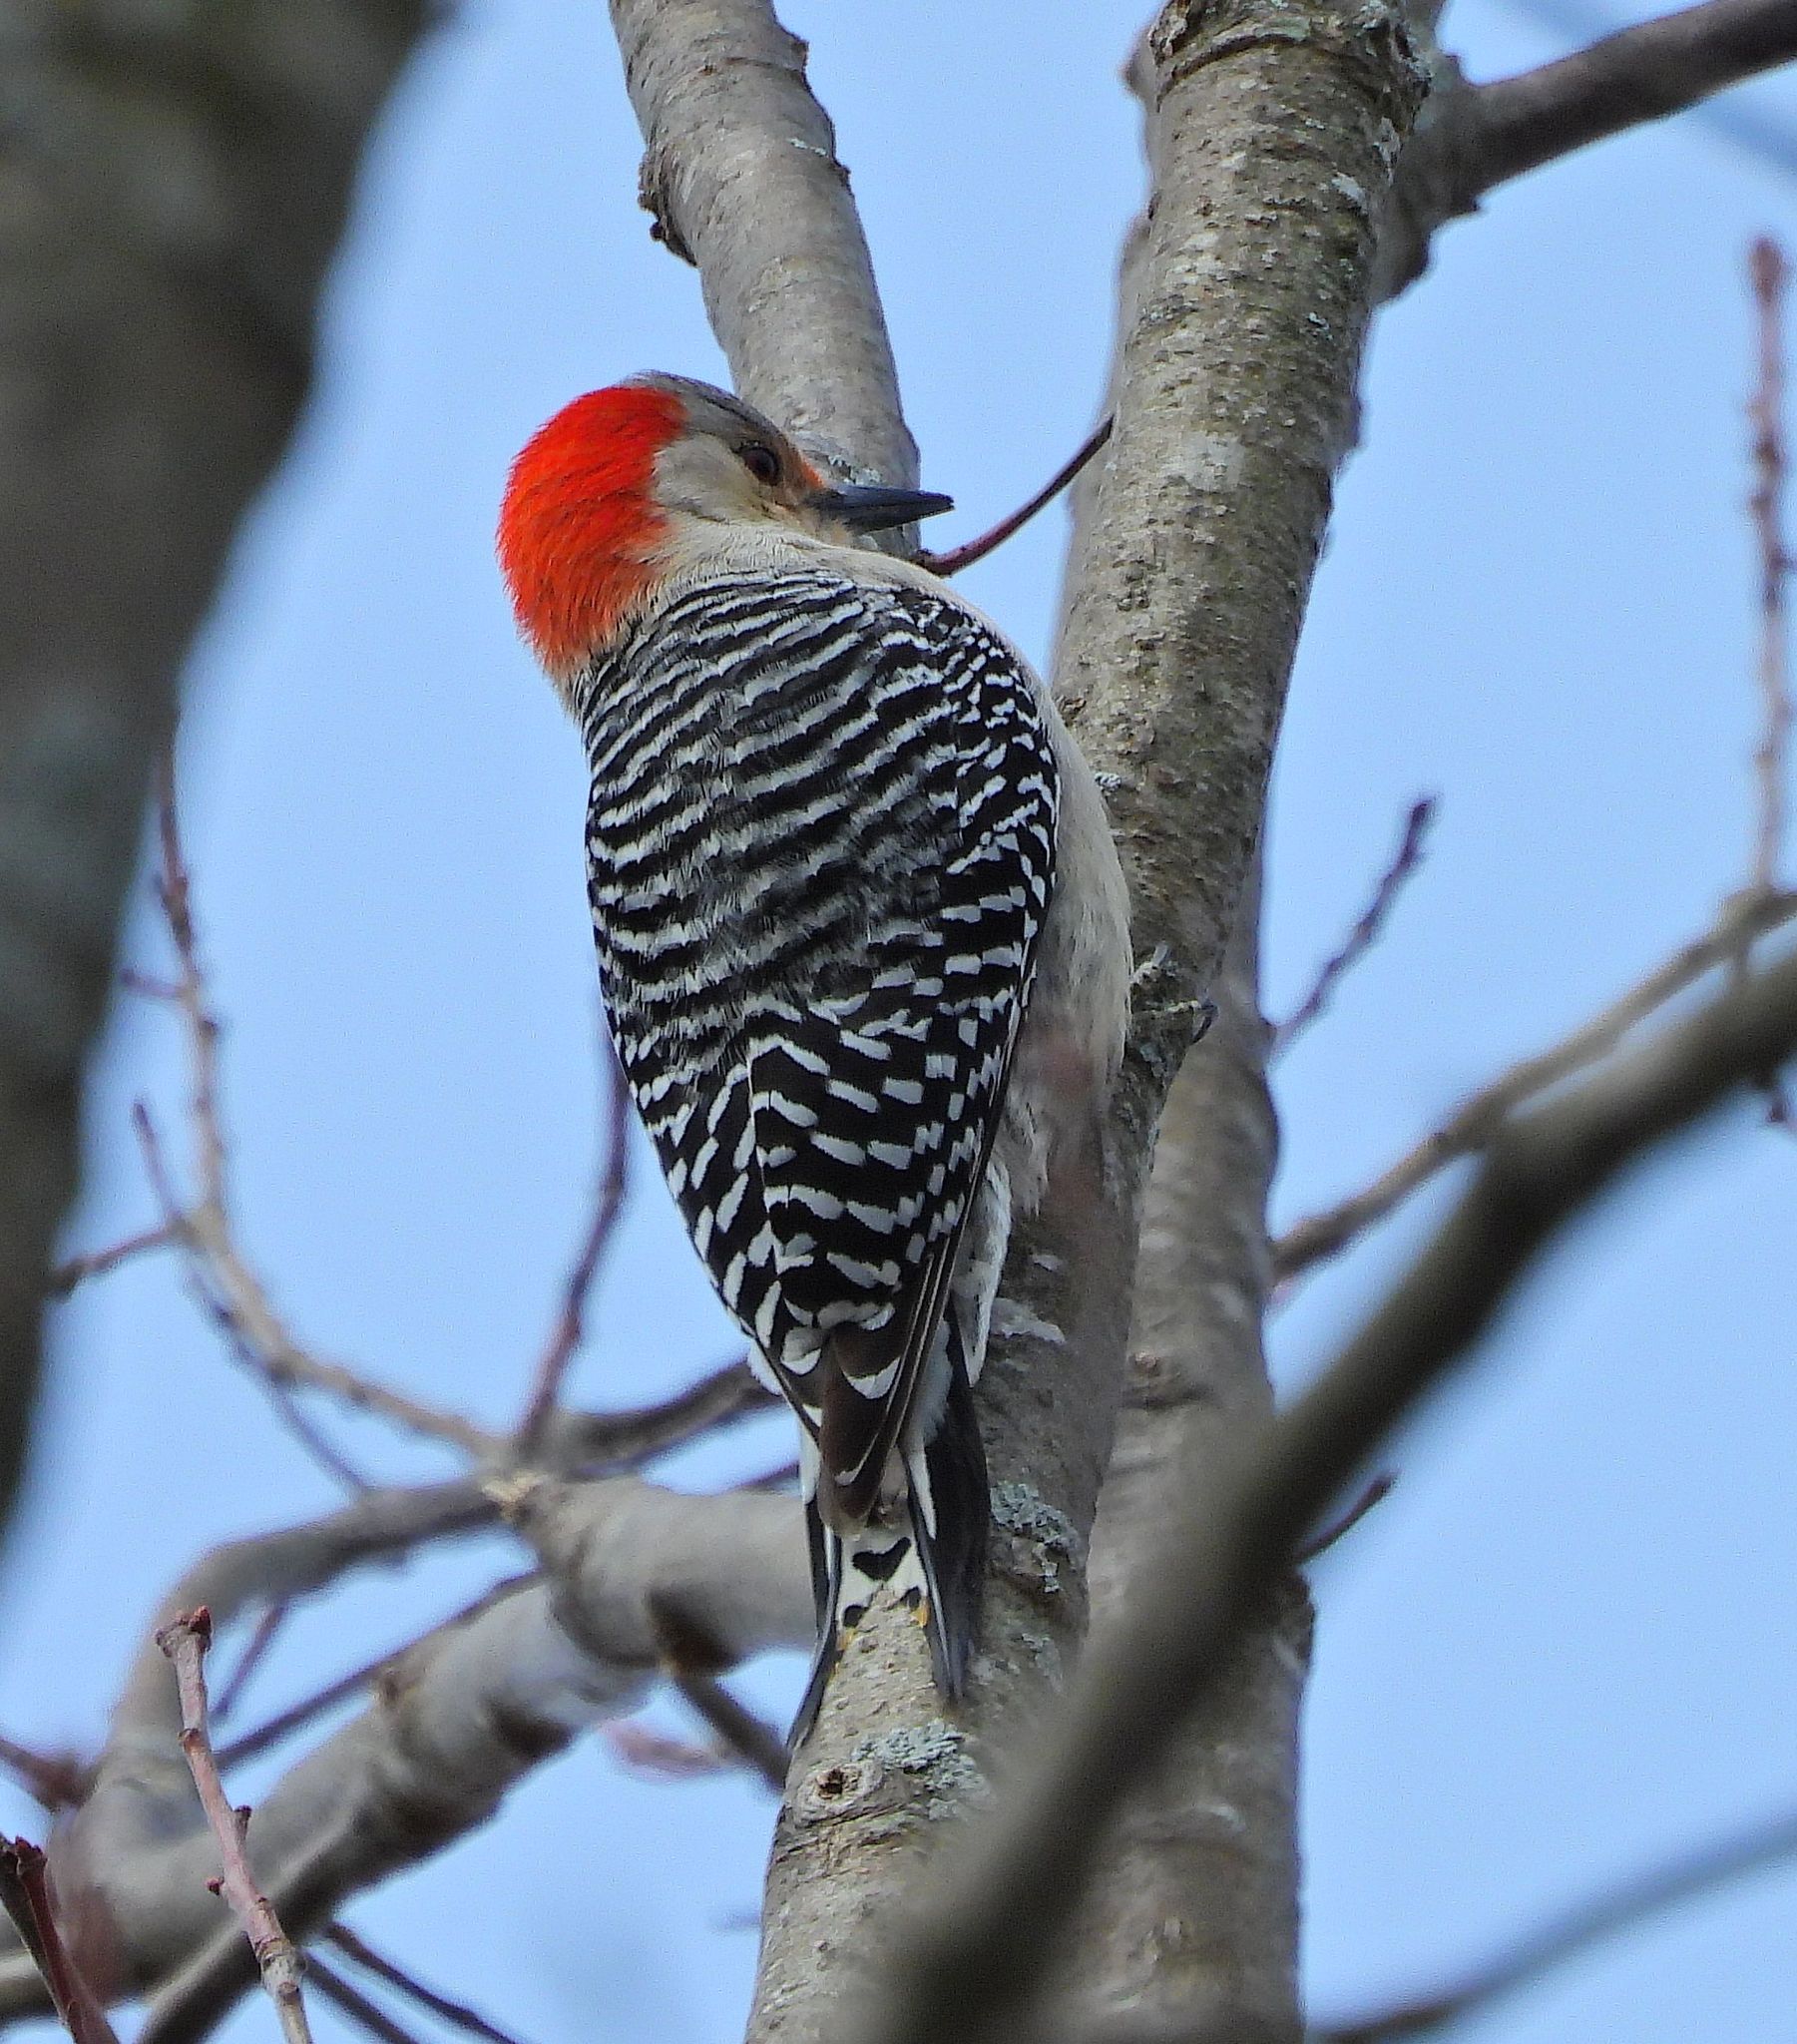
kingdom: Animalia
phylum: Chordata
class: Aves
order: Piciformes
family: Picidae
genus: Melanerpes
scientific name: Melanerpes carolinus
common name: Red-bellied woodpecker
